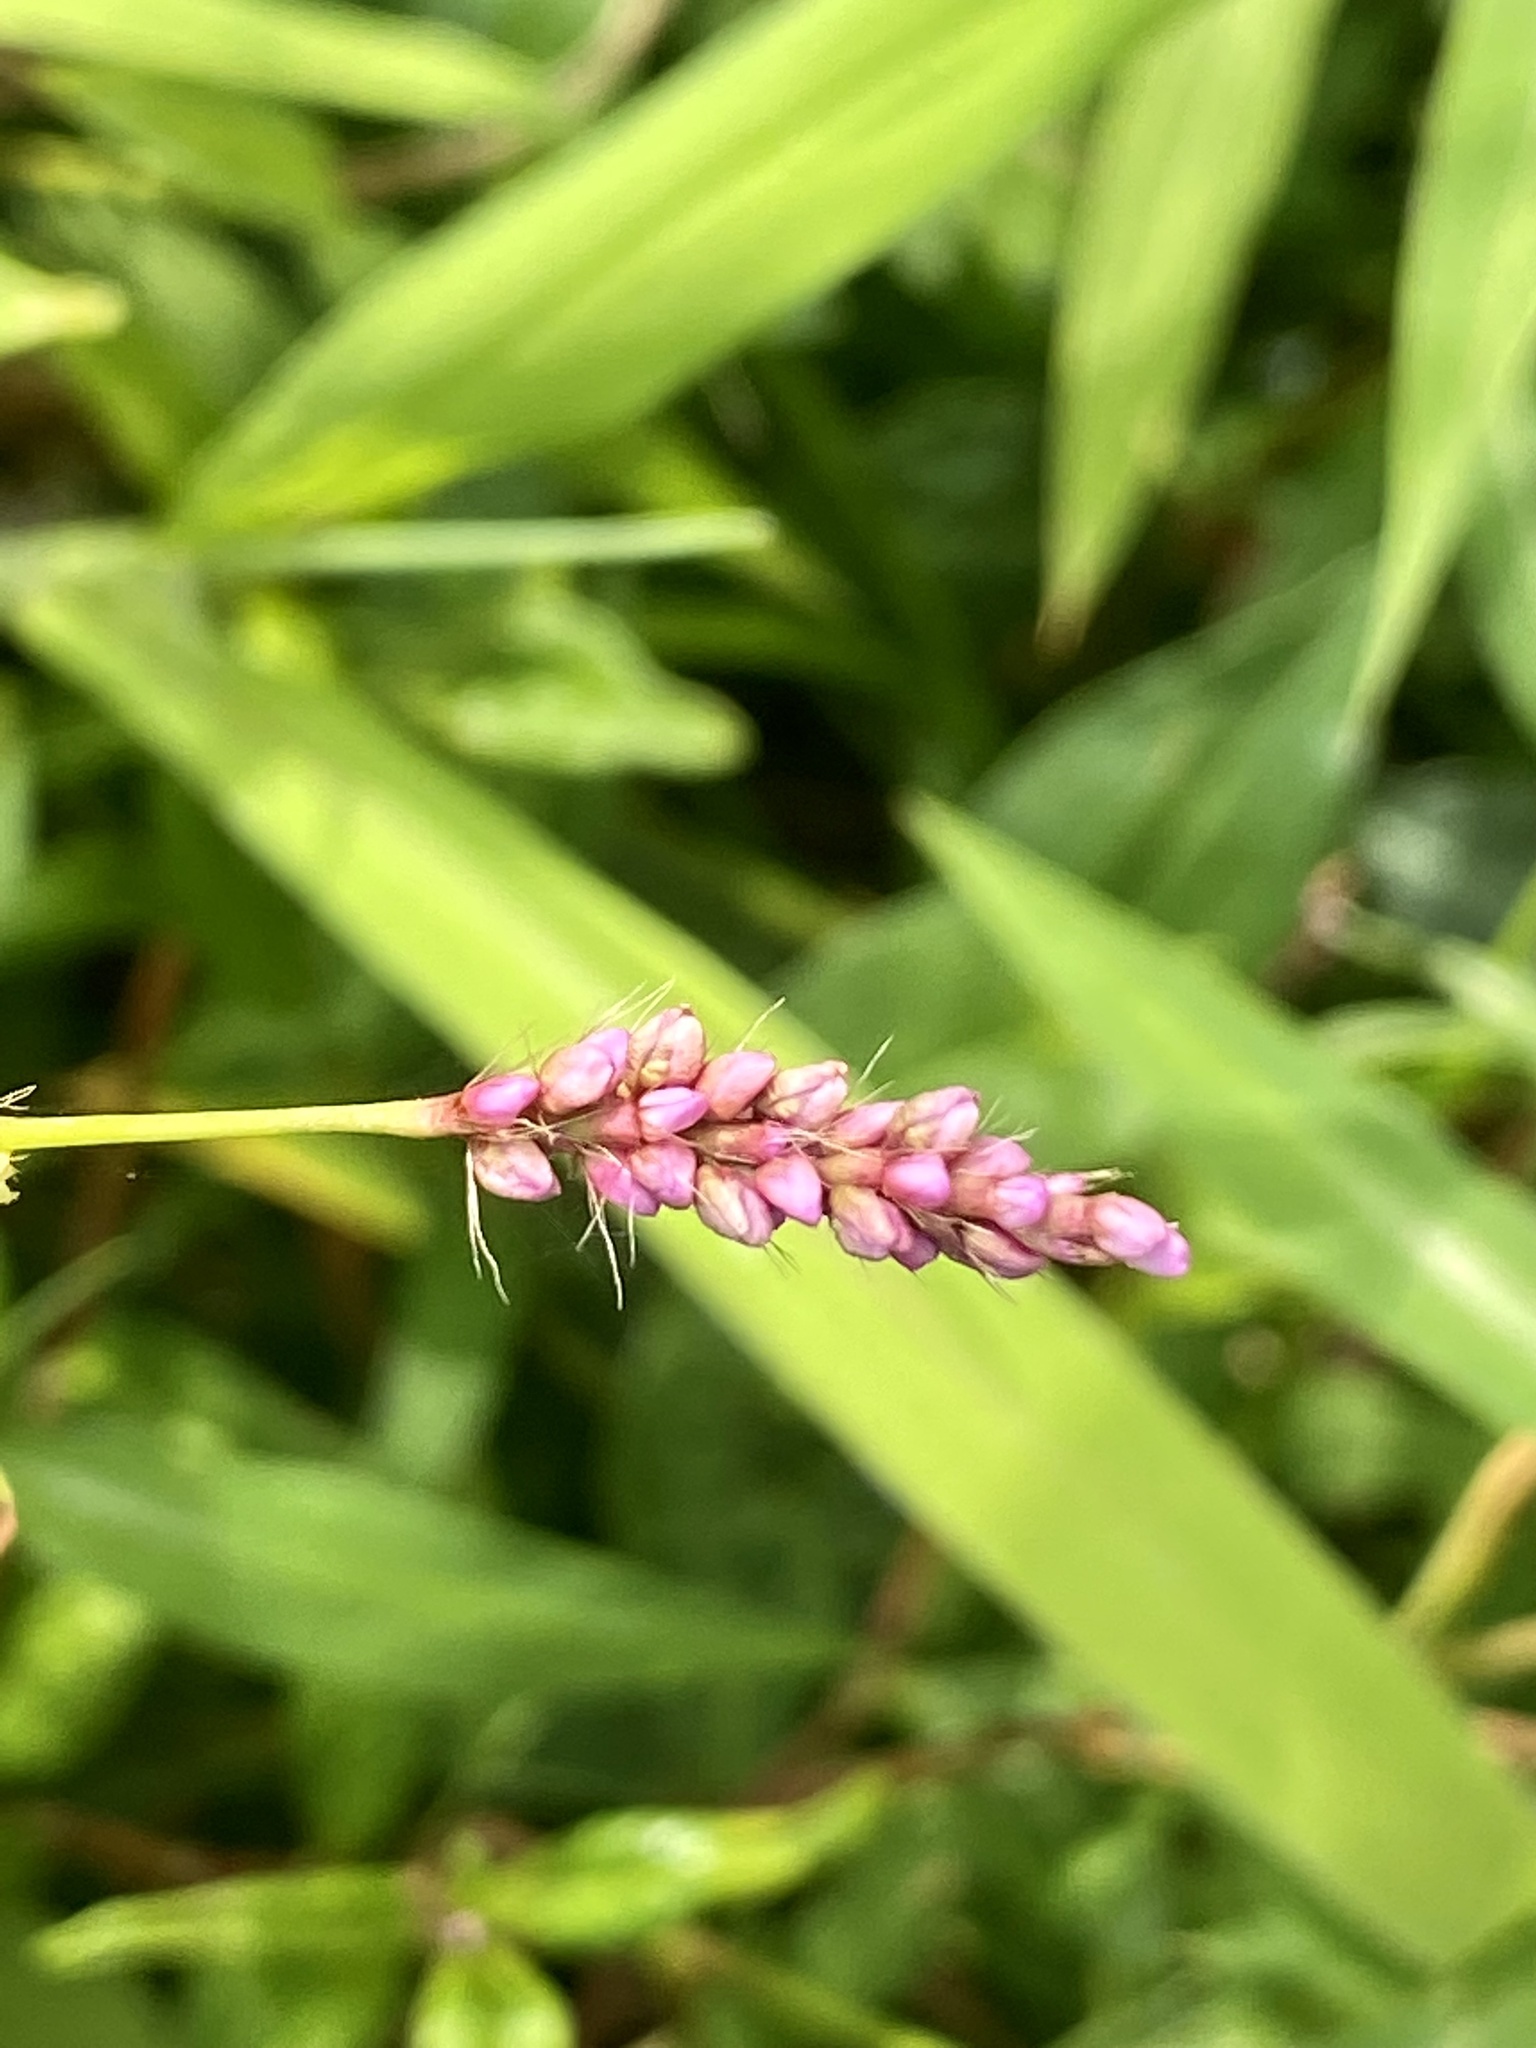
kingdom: Plantae
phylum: Tracheophyta
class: Magnoliopsida
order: Caryophyllales
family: Polygonaceae
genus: Persicaria
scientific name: Persicaria longiseta
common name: Bristly lady's-thumb
